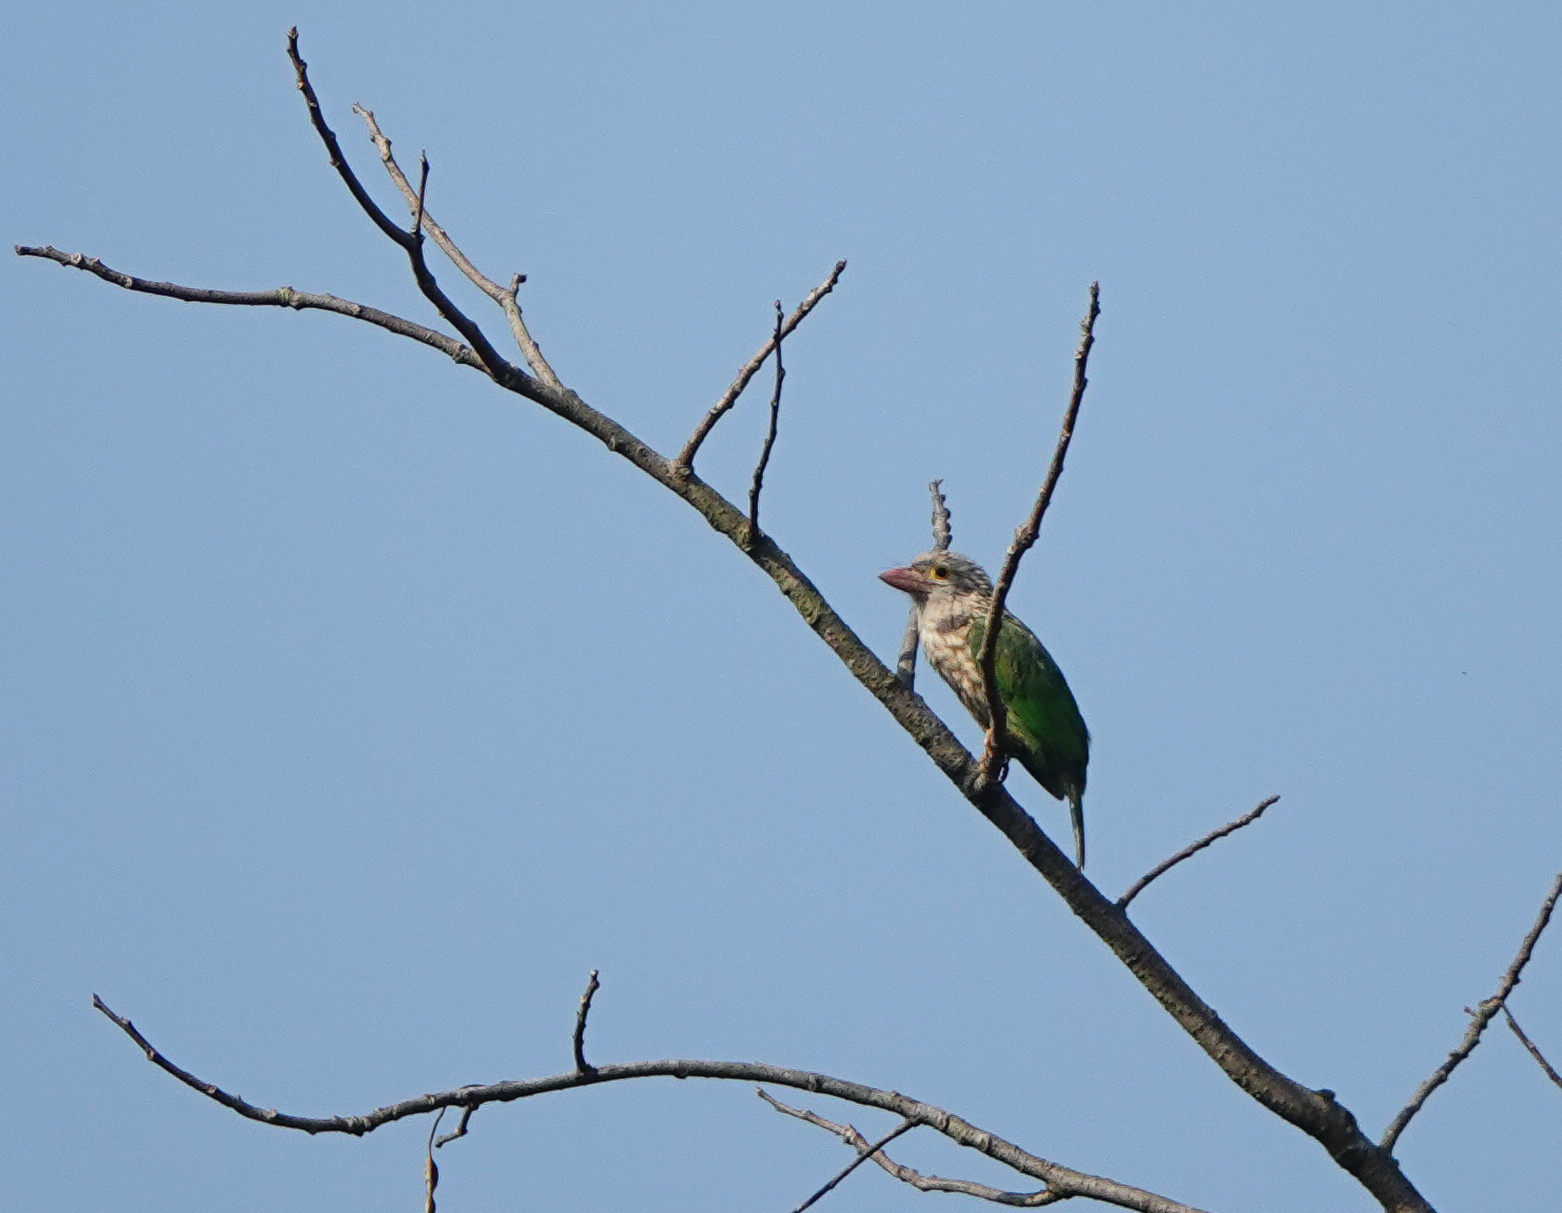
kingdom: Animalia
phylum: Chordata
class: Aves
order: Piciformes
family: Megalaimidae
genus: Psilopogon
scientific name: Psilopogon lineatus
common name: Lineated barbet
